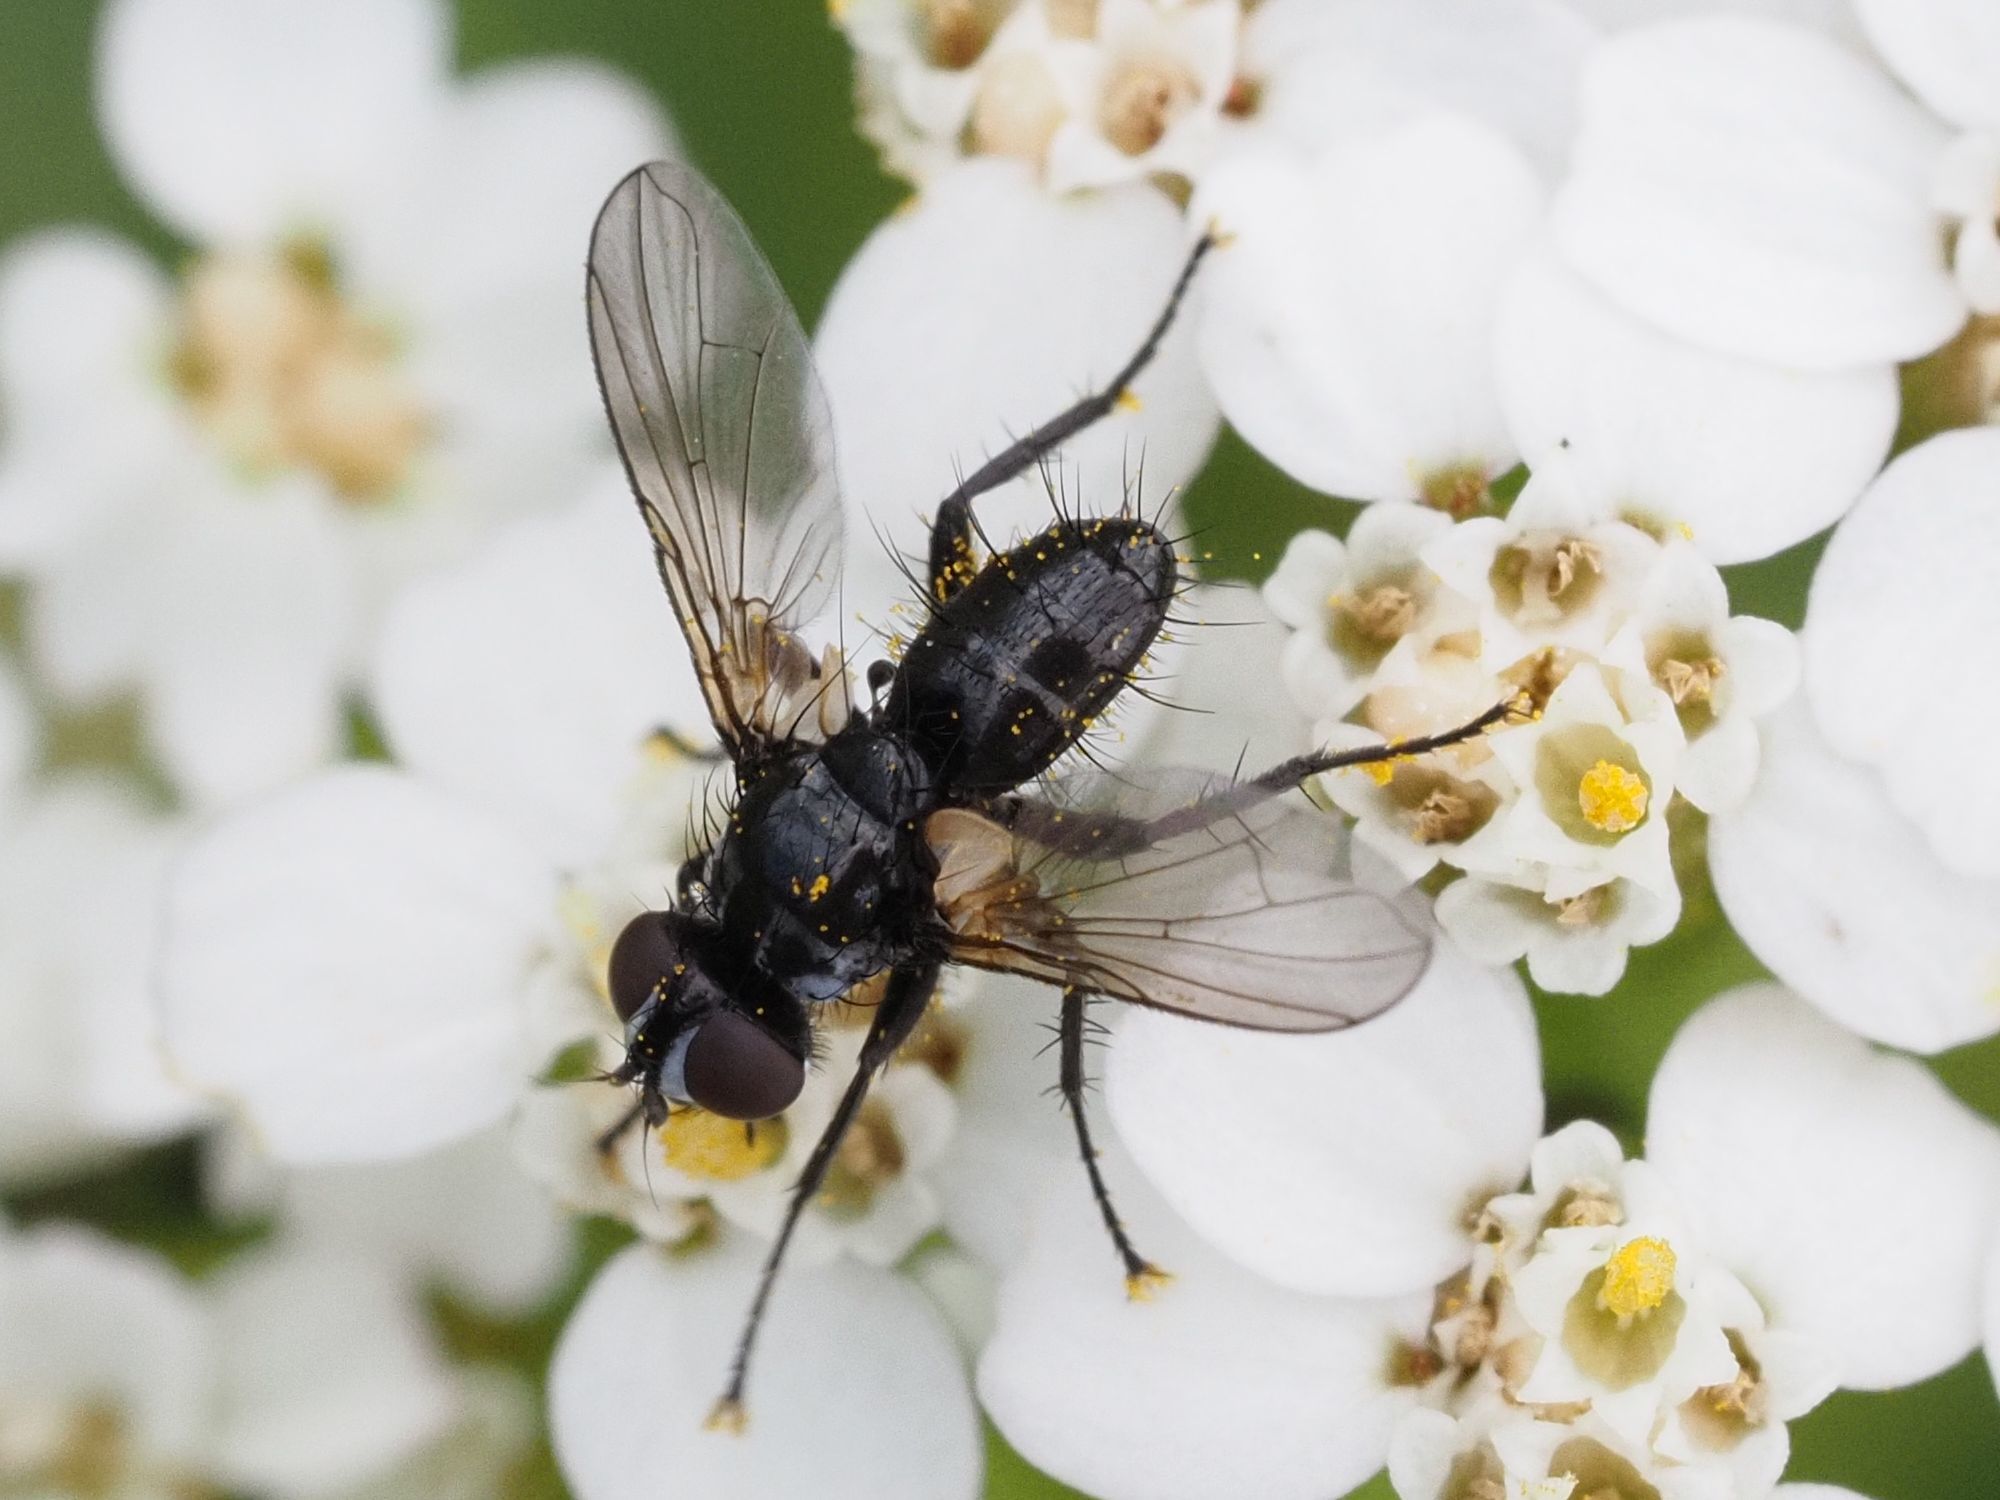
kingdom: Animalia
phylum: Arthropoda
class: Insecta
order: Diptera
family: Tachinidae
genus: Phania
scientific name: Phania funesta
